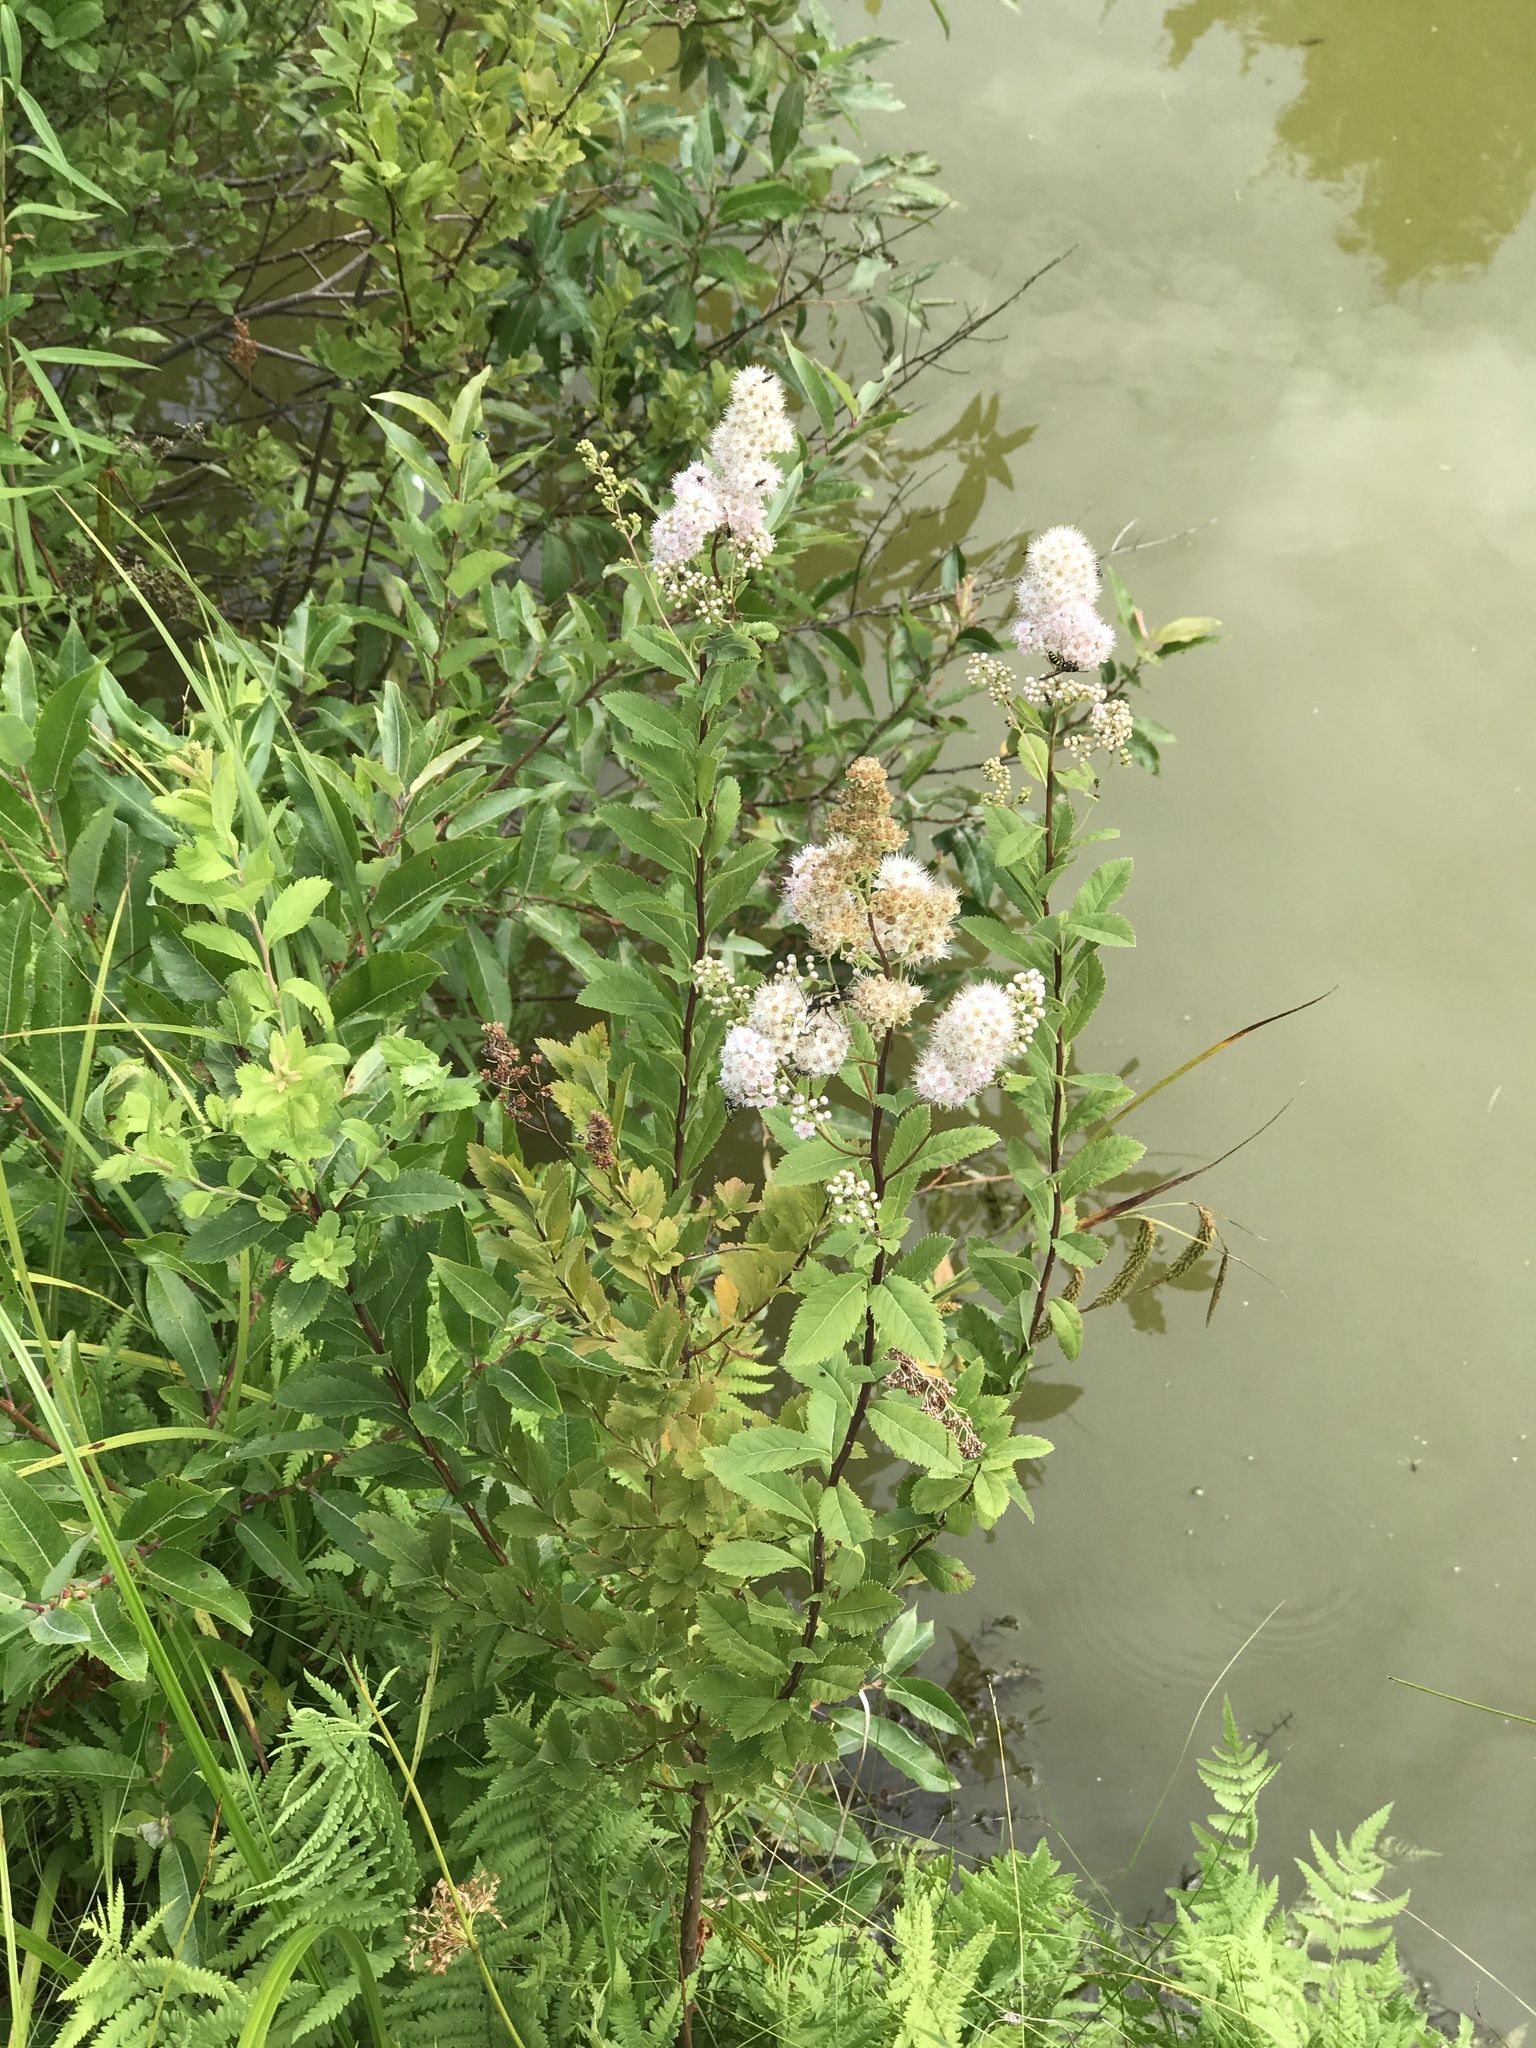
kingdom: Plantae
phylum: Tracheophyta
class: Magnoliopsida
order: Rosales
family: Rosaceae
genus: Spiraea
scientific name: Spiraea alba
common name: Pale bridewort
